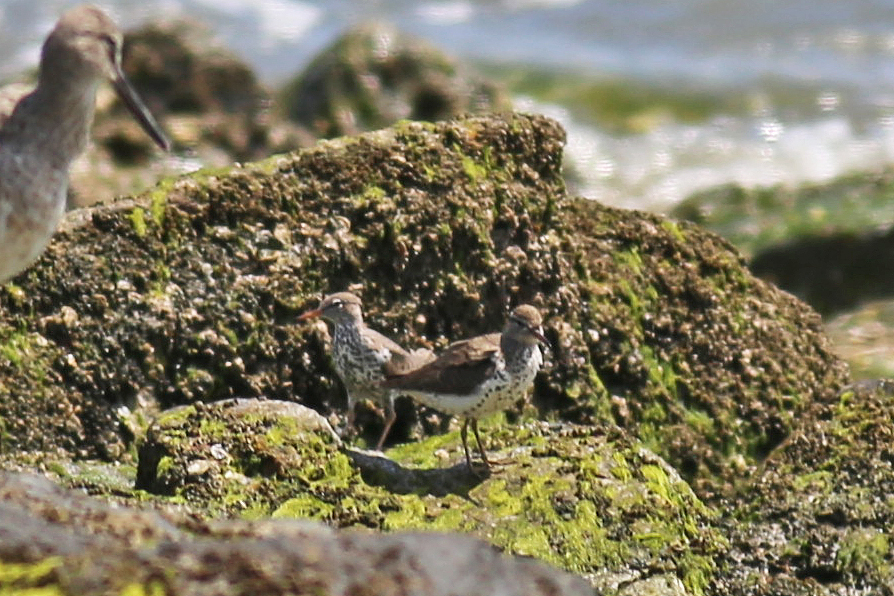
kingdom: Animalia
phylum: Chordata
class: Aves
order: Charadriiformes
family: Scolopacidae
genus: Actitis
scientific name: Actitis macularius
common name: Spotted sandpiper
